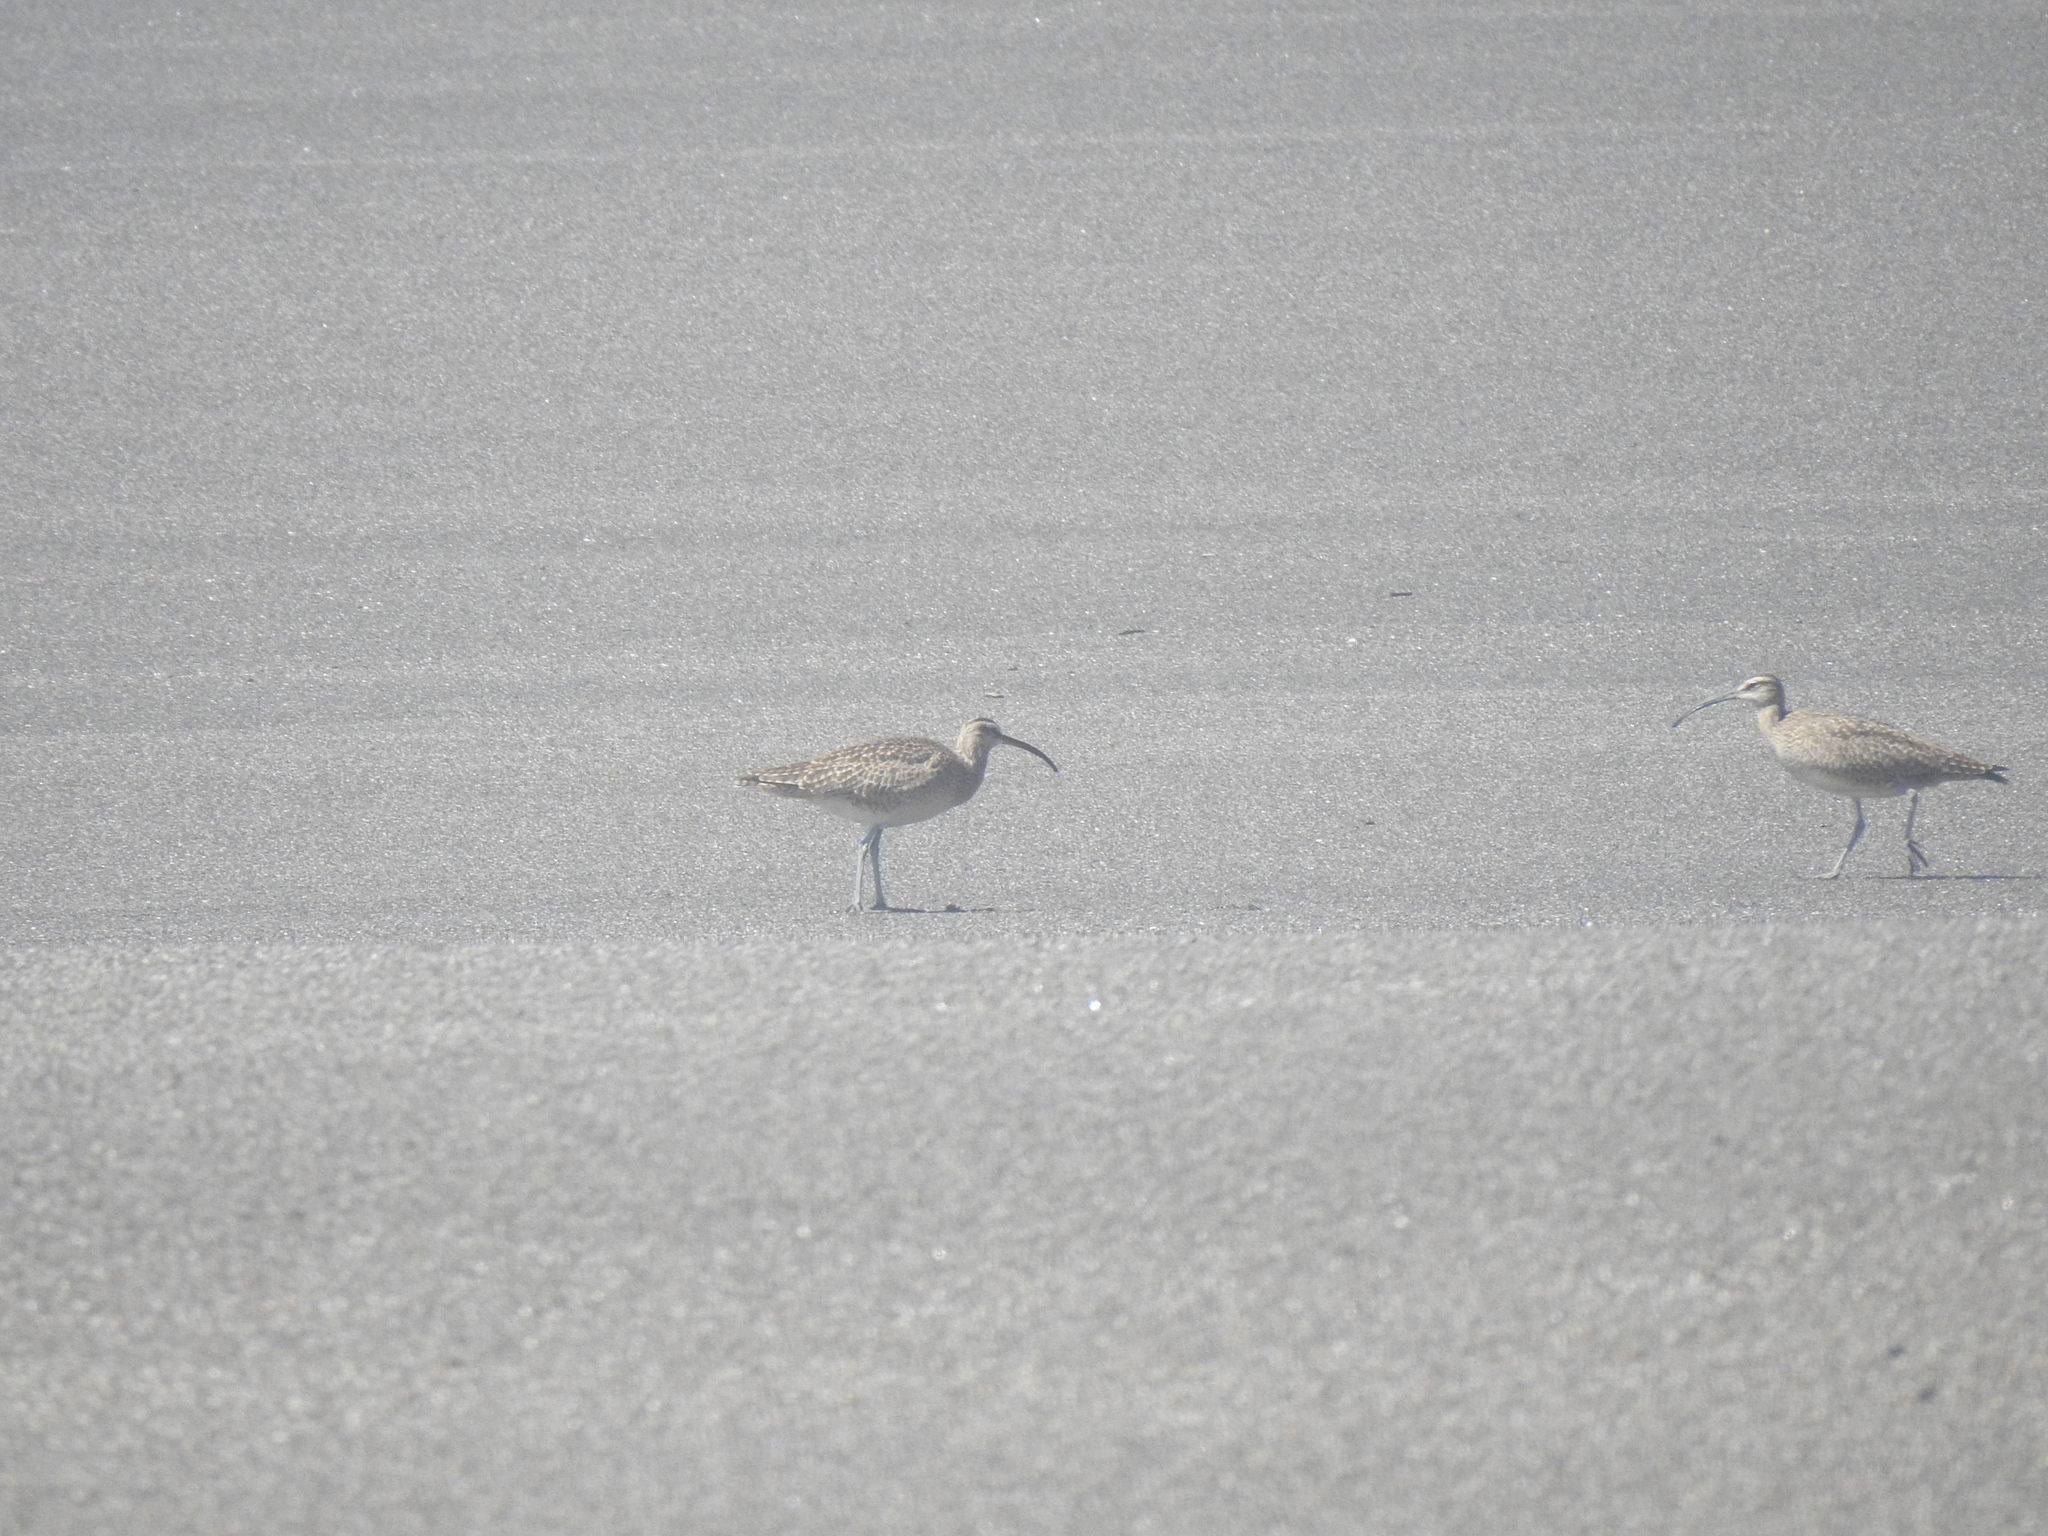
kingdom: Animalia
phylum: Chordata
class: Aves
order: Charadriiformes
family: Scolopacidae
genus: Numenius
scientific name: Numenius phaeopus
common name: Whimbrel
